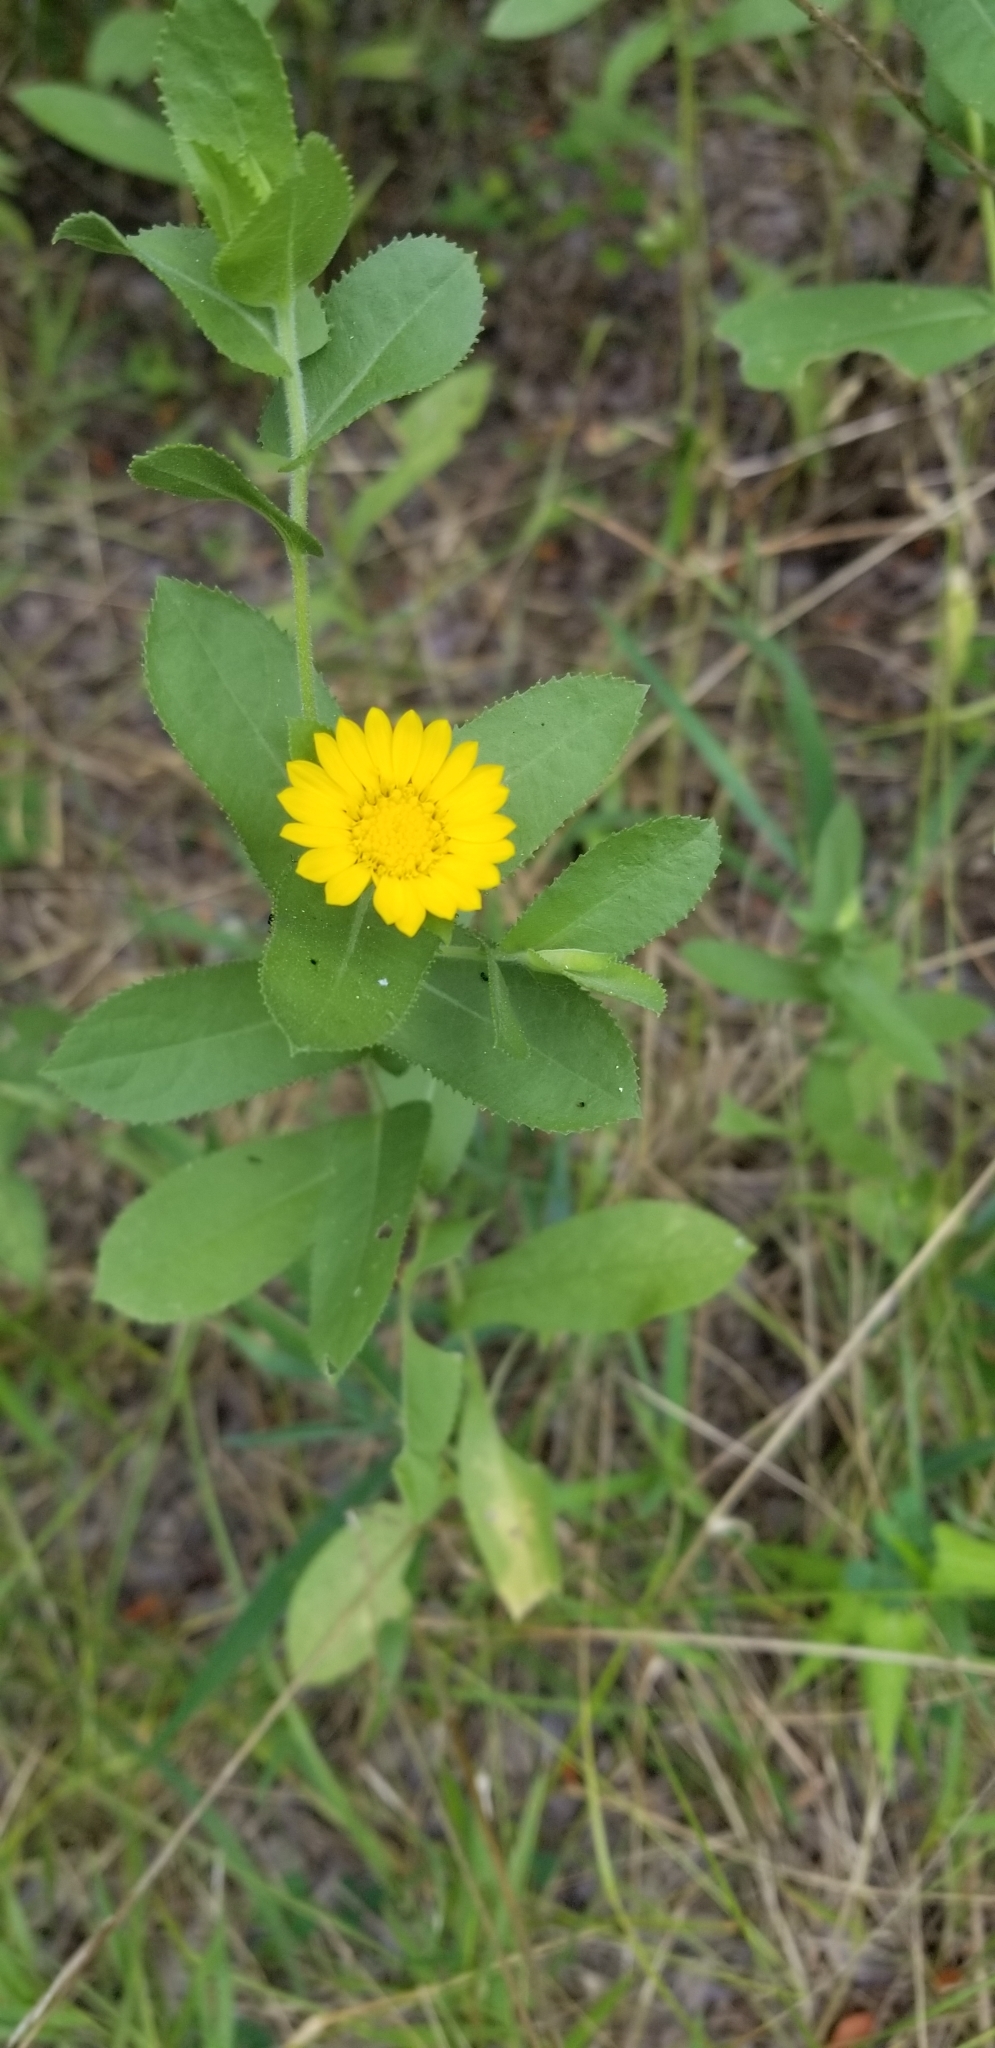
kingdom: Plantae
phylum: Tracheophyta
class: Magnoliopsida
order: Asterales
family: Asteraceae
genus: Calendula
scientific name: Calendula arvensis
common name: Field marigold
